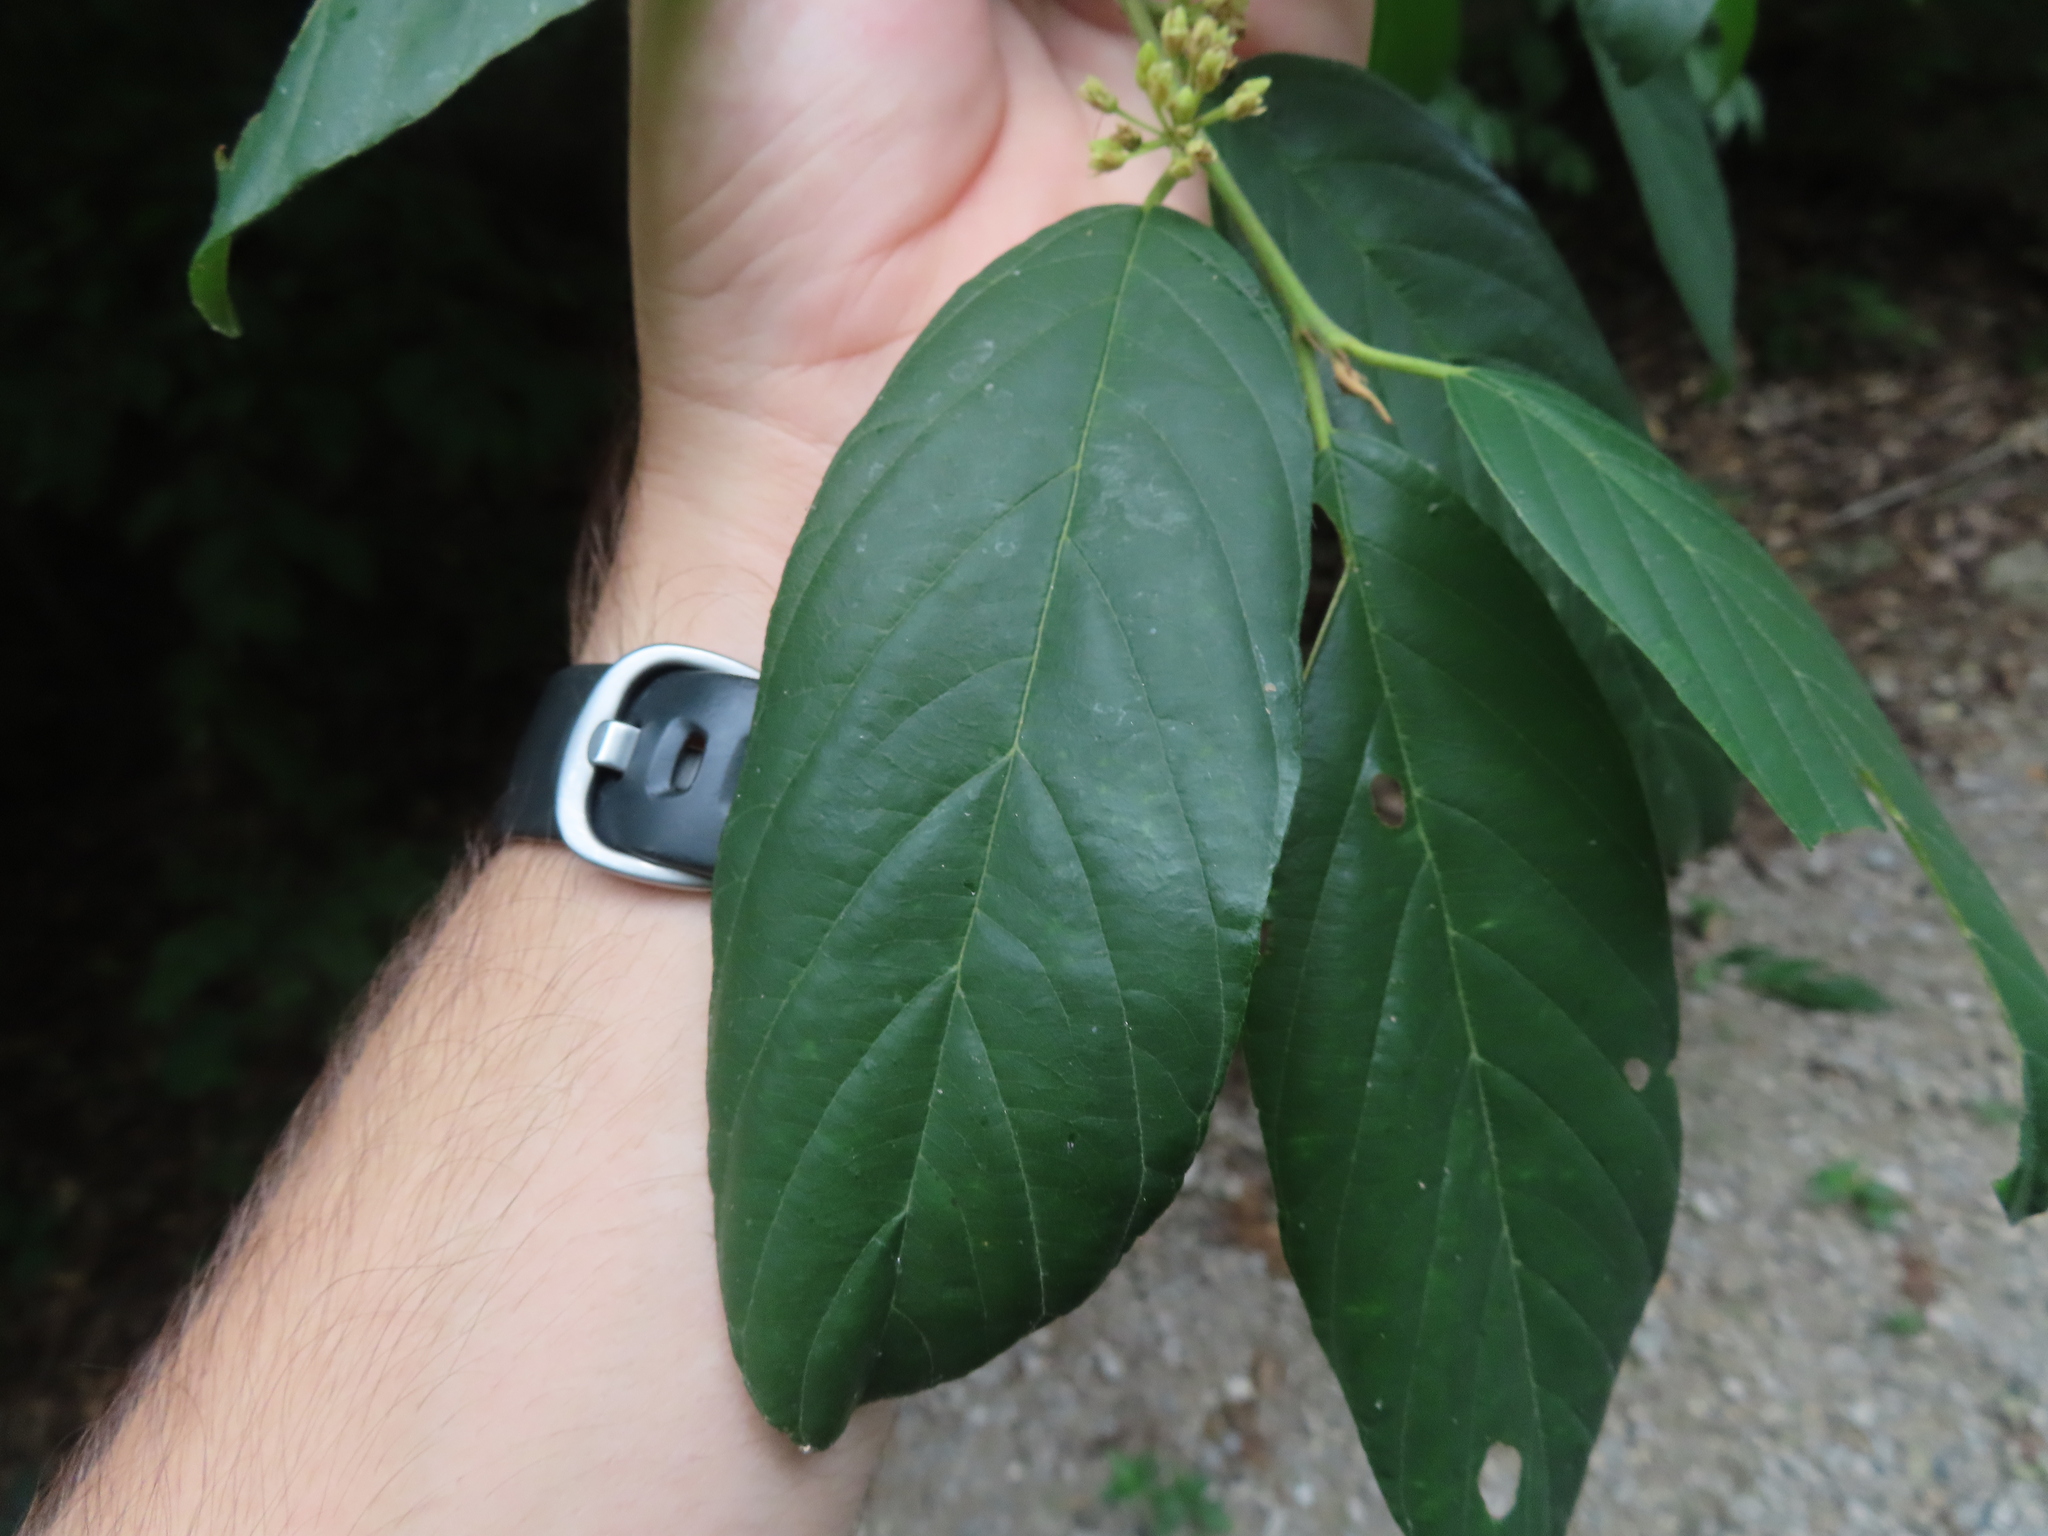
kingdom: Plantae
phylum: Tracheophyta
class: Magnoliopsida
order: Rosales
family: Rhamnaceae
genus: Frangula
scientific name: Frangula caroliniana
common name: Carolina buckthorn
